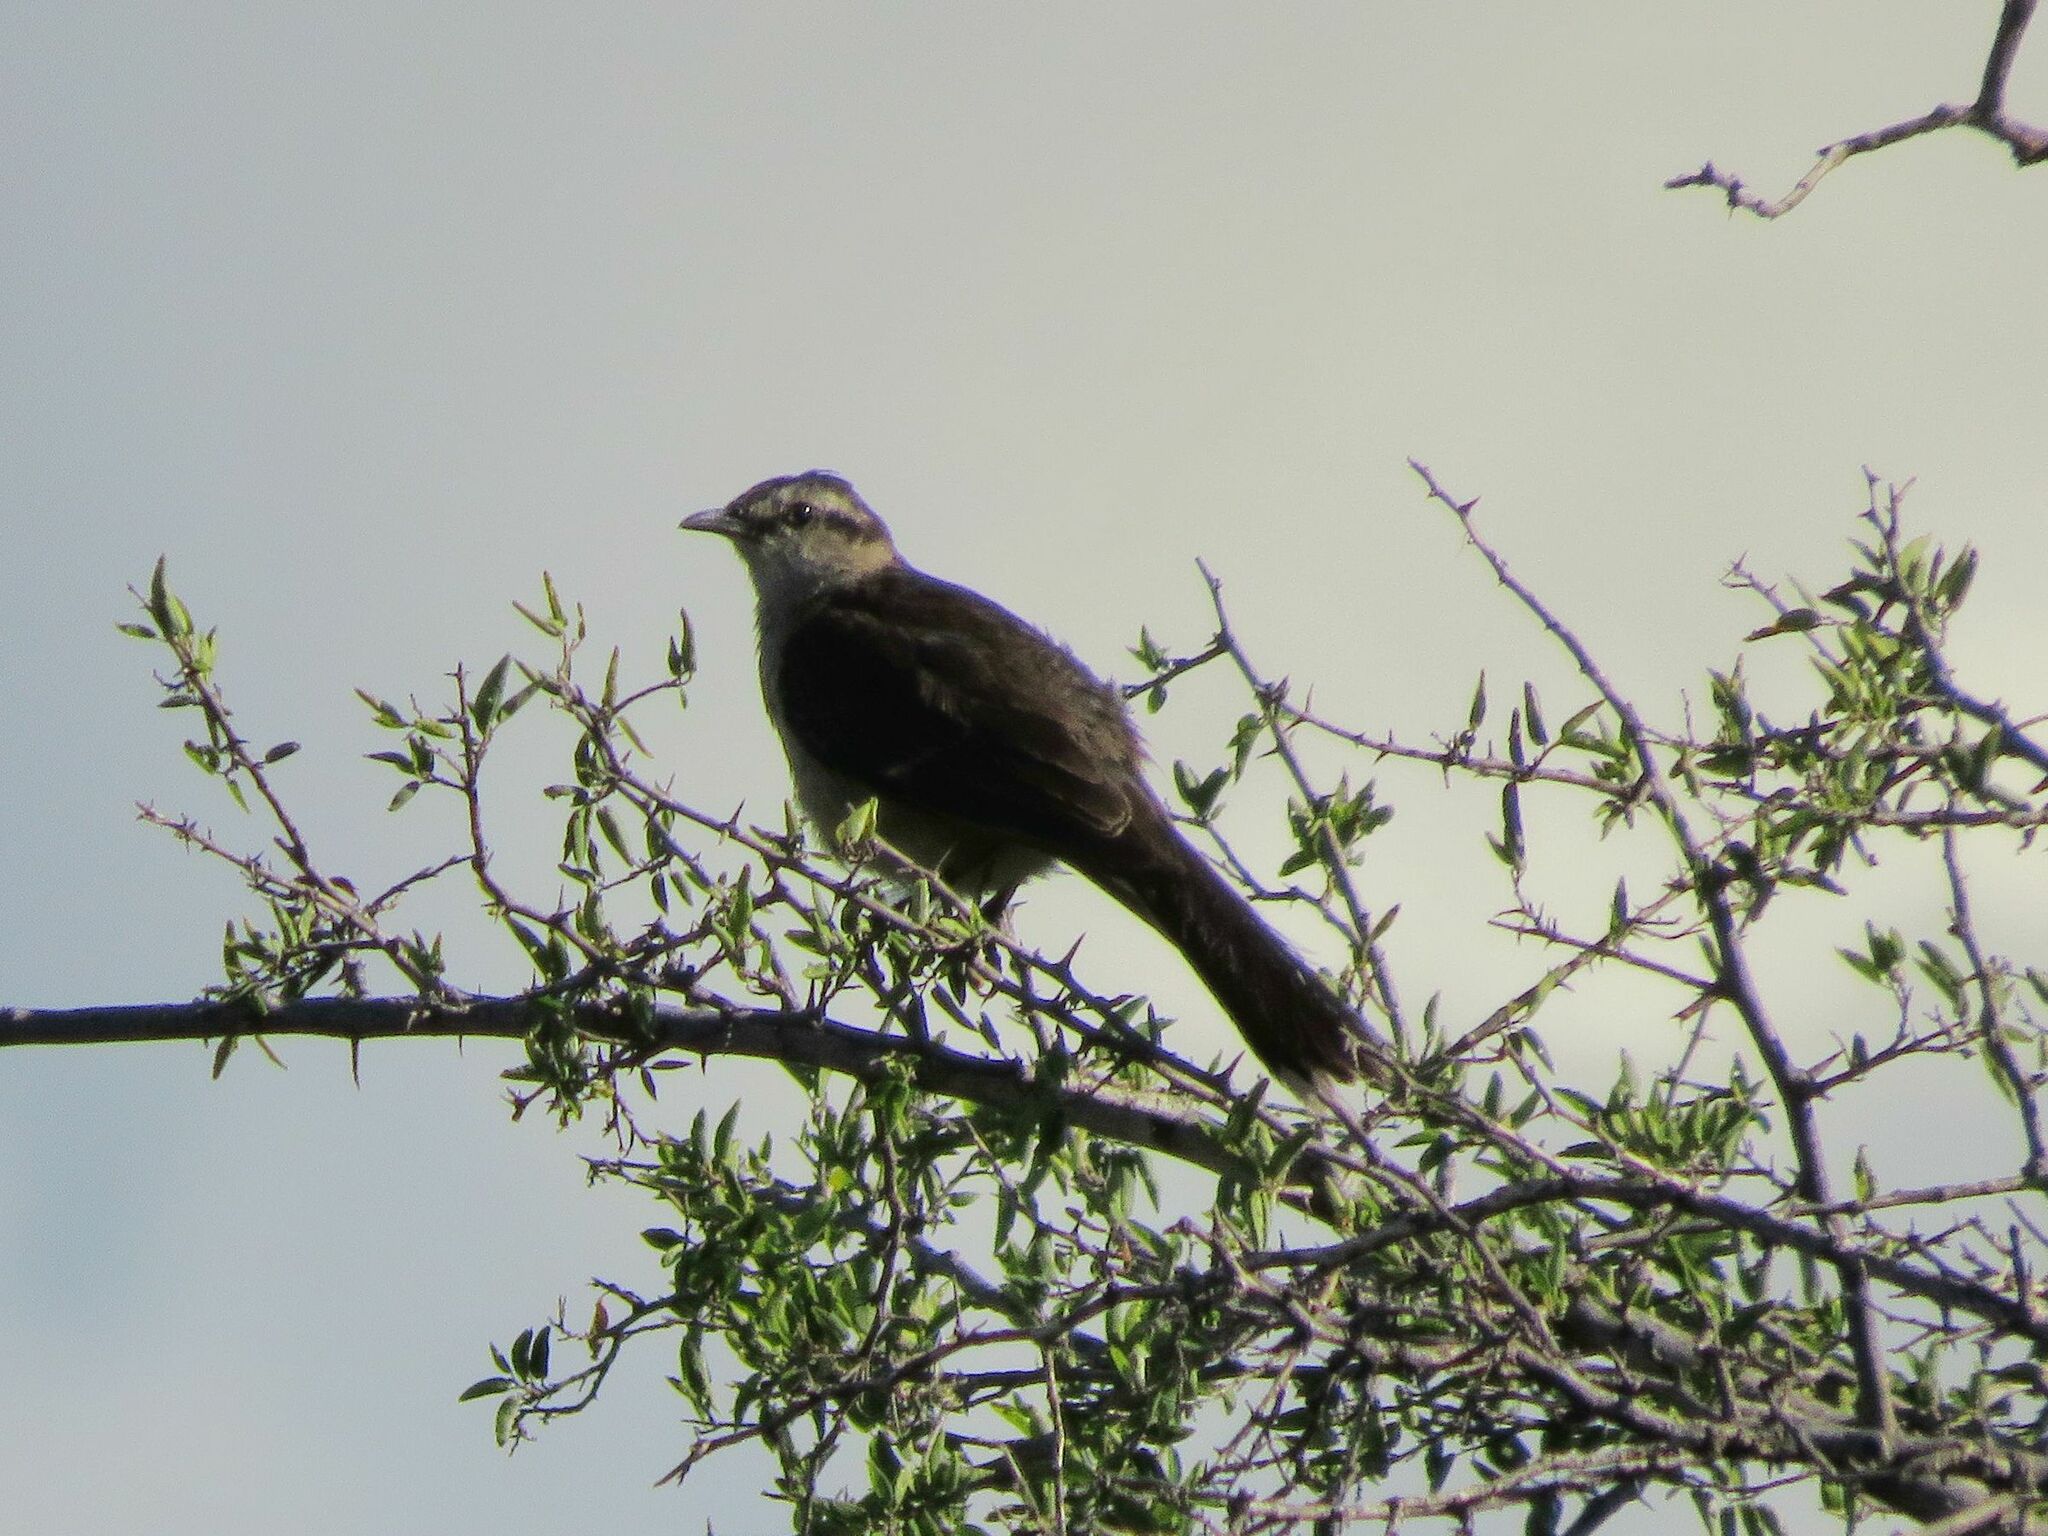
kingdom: Animalia
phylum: Chordata
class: Aves
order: Passeriformes
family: Mimidae
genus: Mimus
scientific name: Mimus saturninus
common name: Chalk-browed mockingbird
